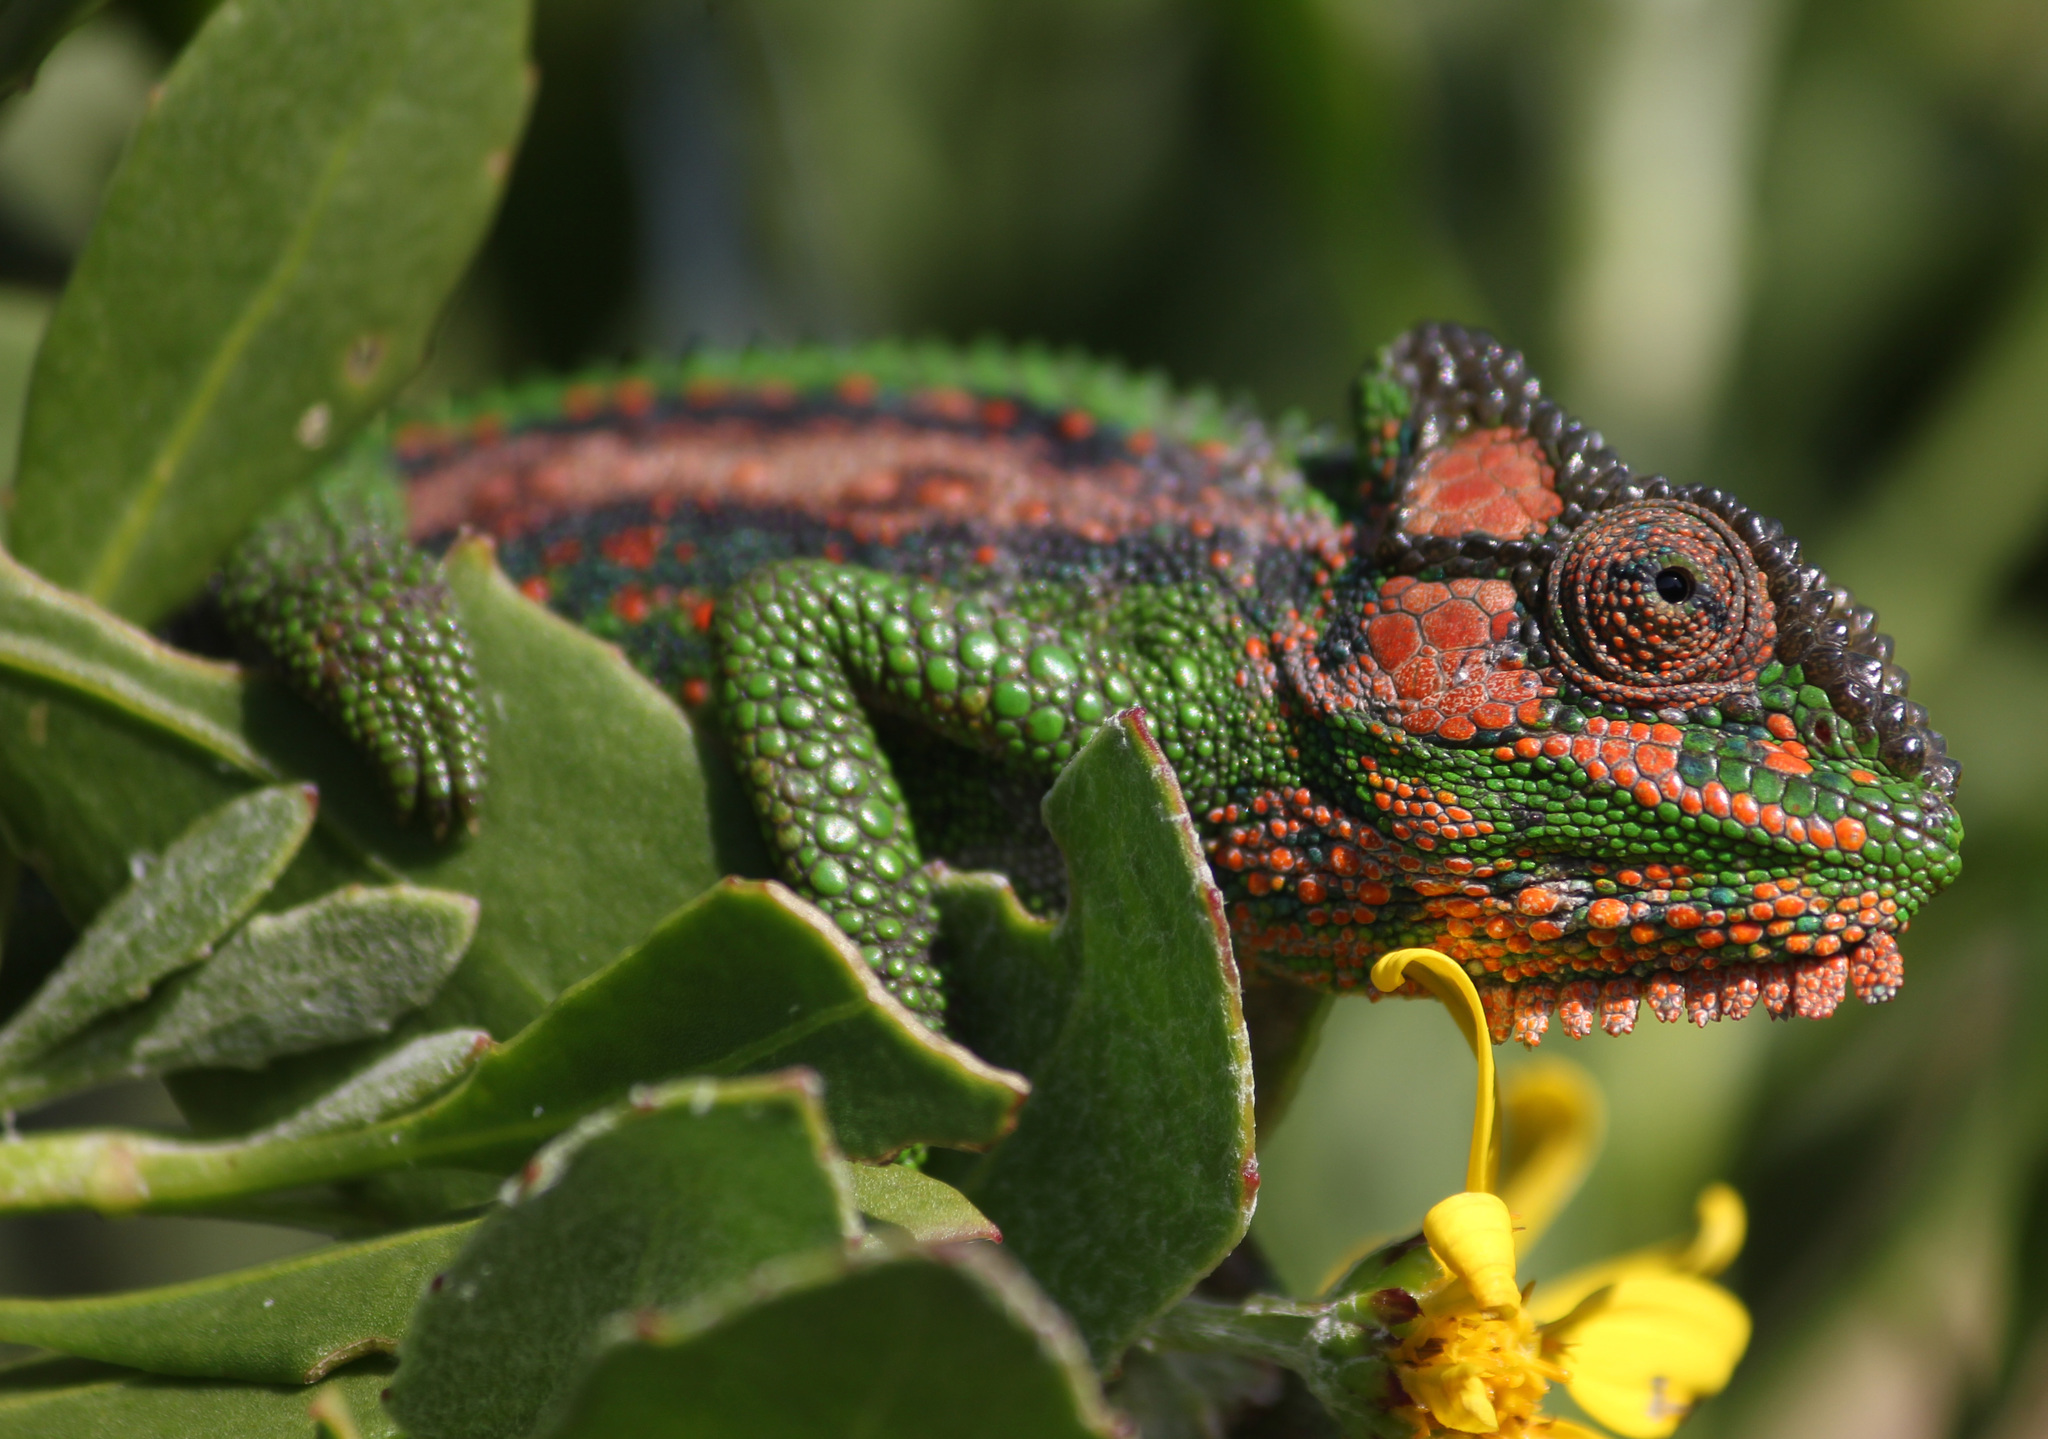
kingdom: Animalia
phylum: Chordata
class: Squamata
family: Chamaeleonidae
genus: Bradypodion
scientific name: Bradypodion pumilum
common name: Cape dwarf chameleon
